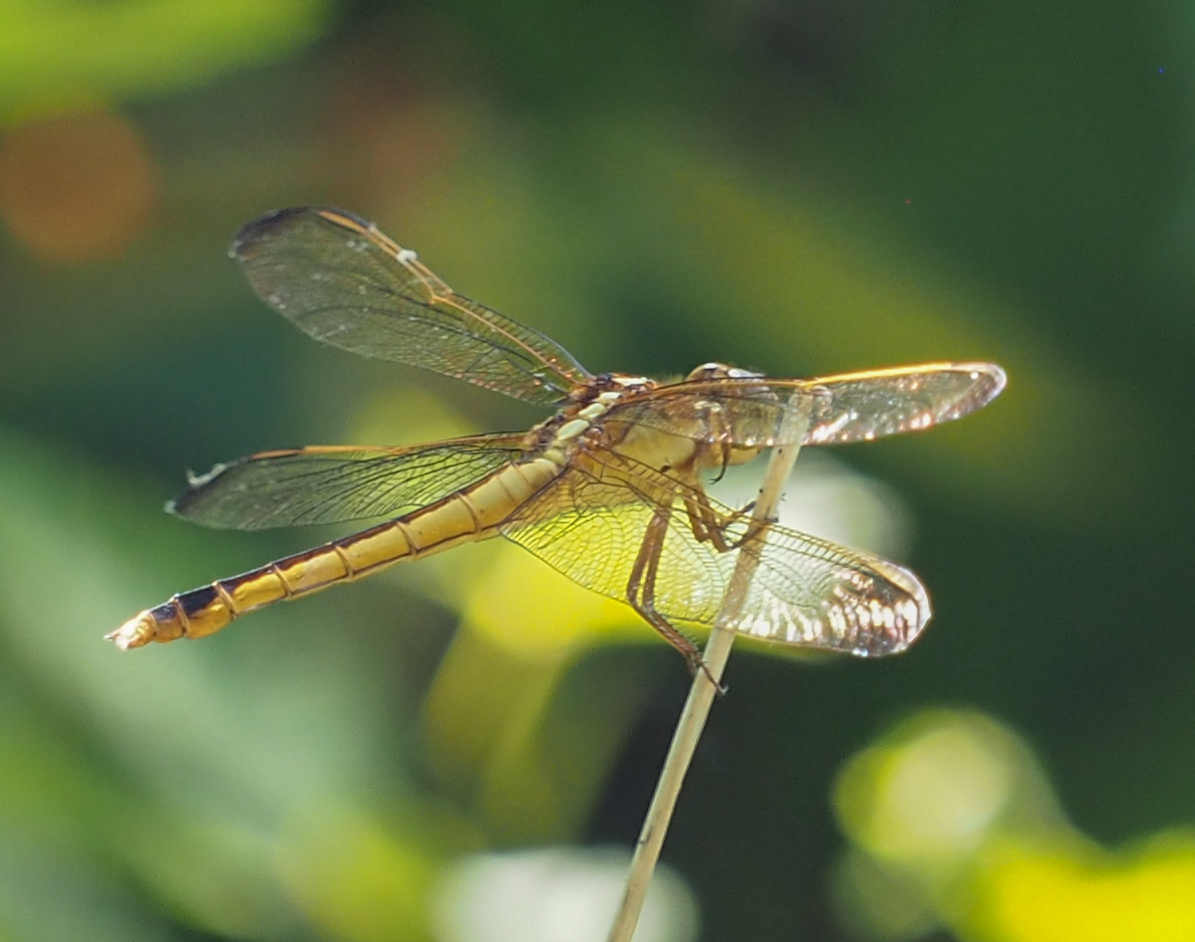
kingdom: Animalia
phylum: Arthropoda
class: Insecta
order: Odonata
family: Libellulidae
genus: Libellula
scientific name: Libellula needhami
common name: Needham's skimmer
